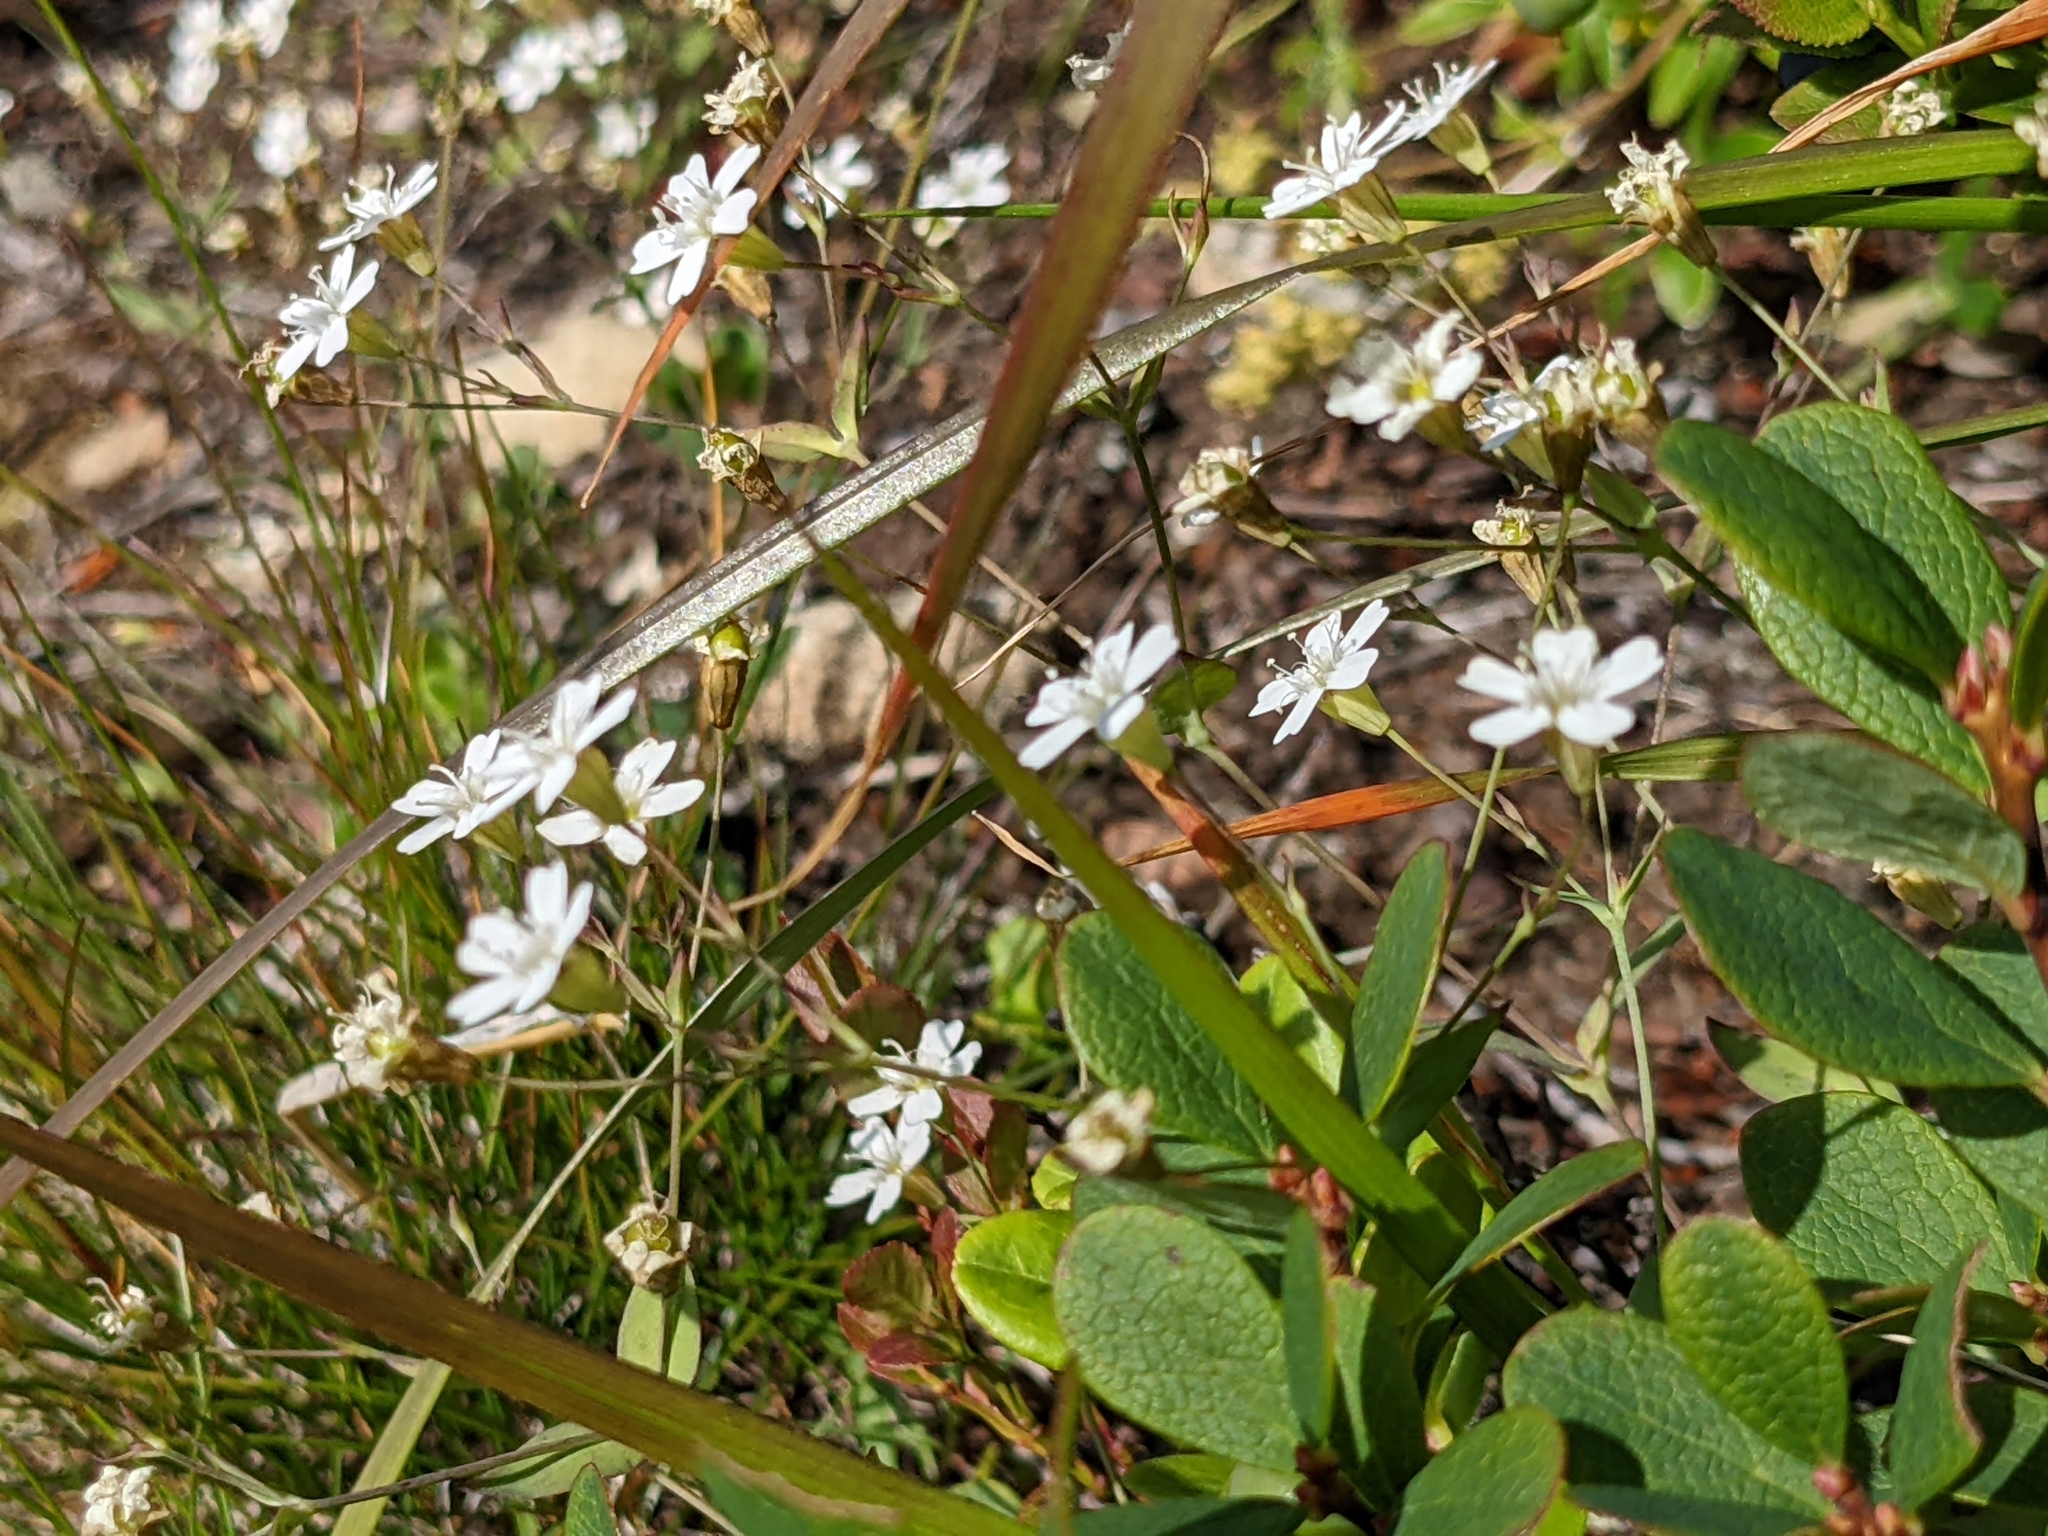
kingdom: Plantae
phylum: Tracheophyta
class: Magnoliopsida
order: Caryophyllales
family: Caryophyllaceae
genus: Atocion
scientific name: Atocion rupestre
